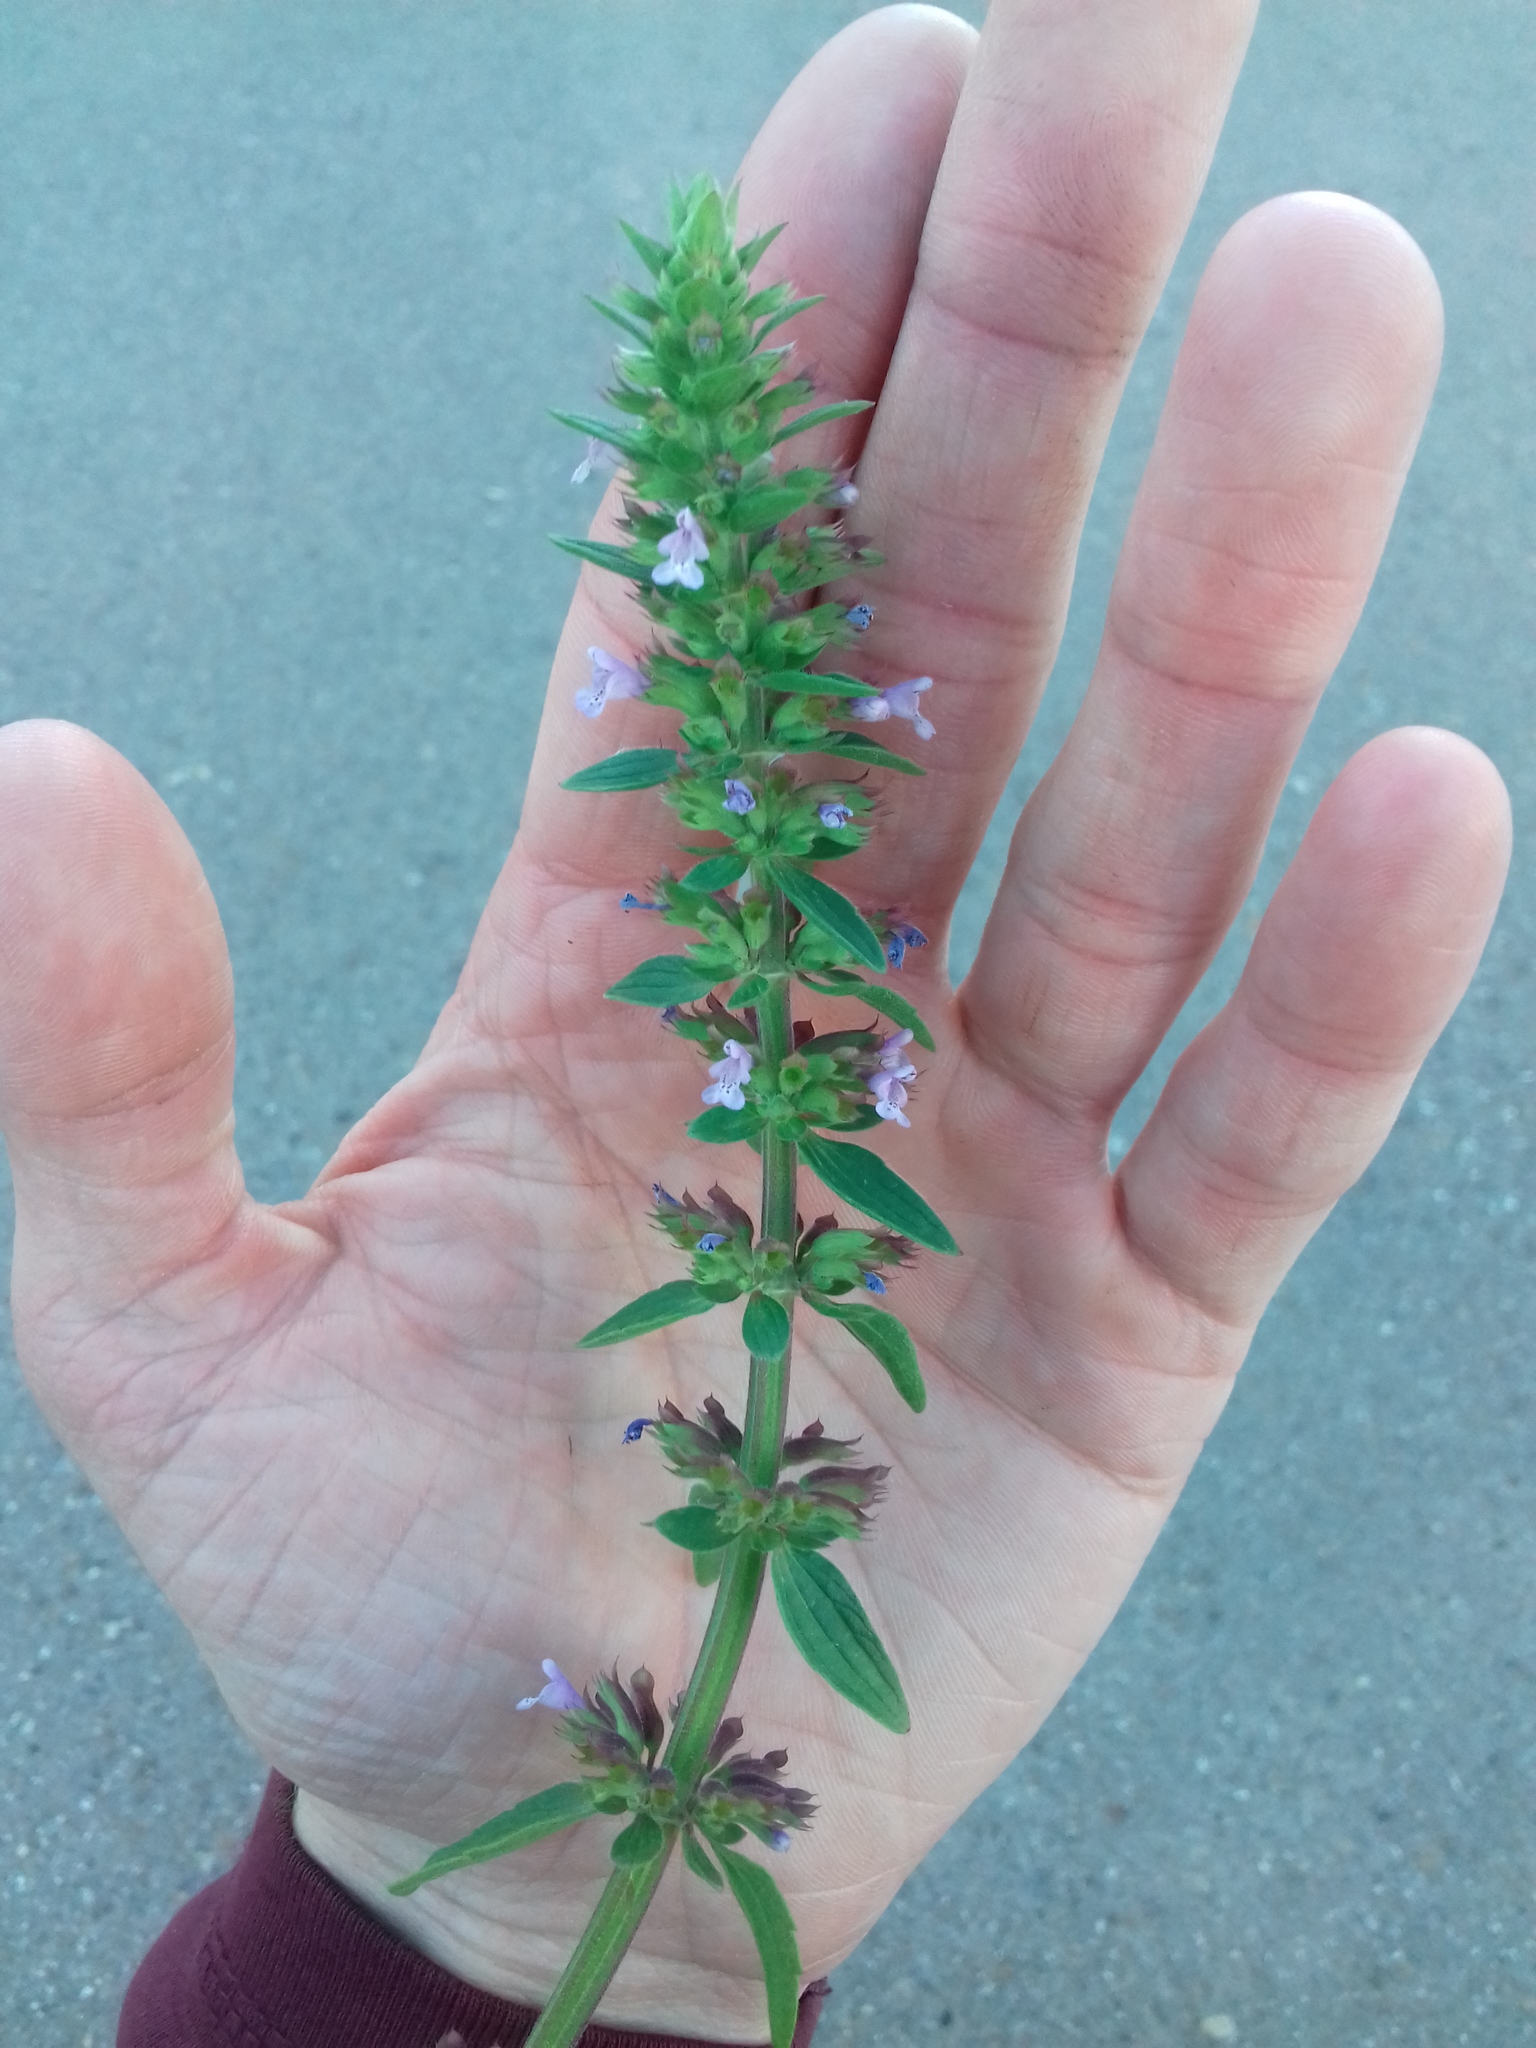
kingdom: Plantae
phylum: Tracheophyta
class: Magnoliopsida
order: Lamiales
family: Lamiaceae
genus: Dracocephalum
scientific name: Dracocephalum thymiflorum
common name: Thymeleaf dragonhead
